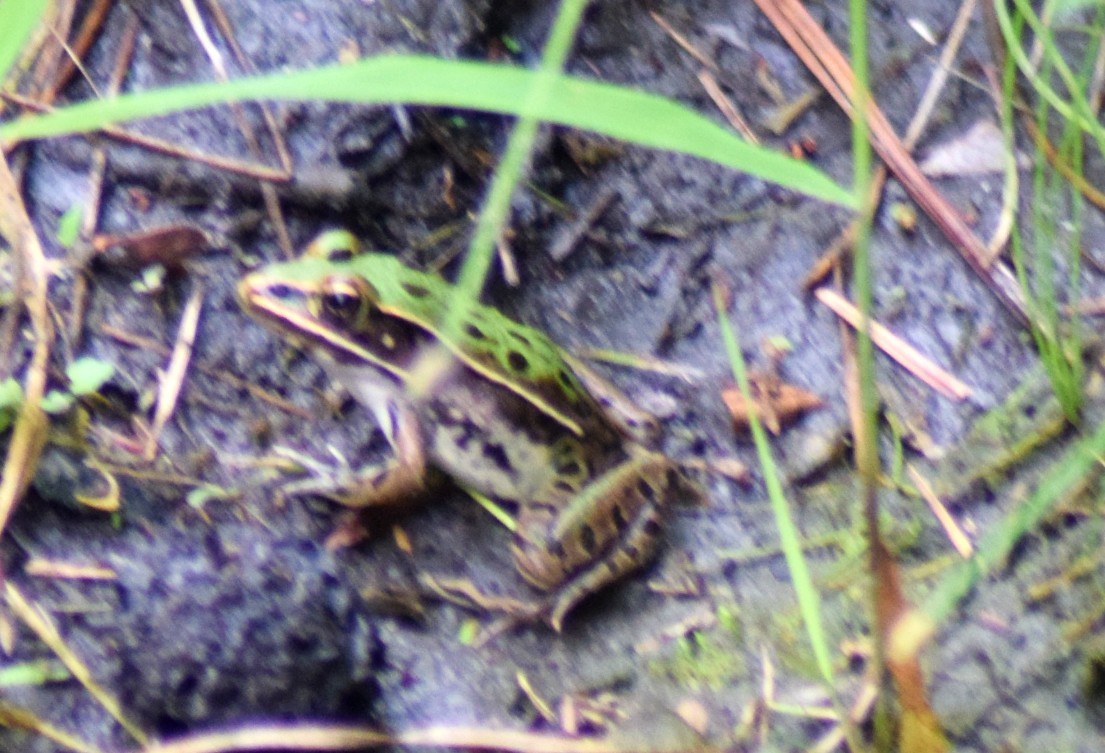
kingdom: Animalia
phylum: Chordata
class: Amphibia
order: Anura
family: Ranidae
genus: Lithobates
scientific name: Lithobates sphenocephalus
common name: Southern leopard frog
